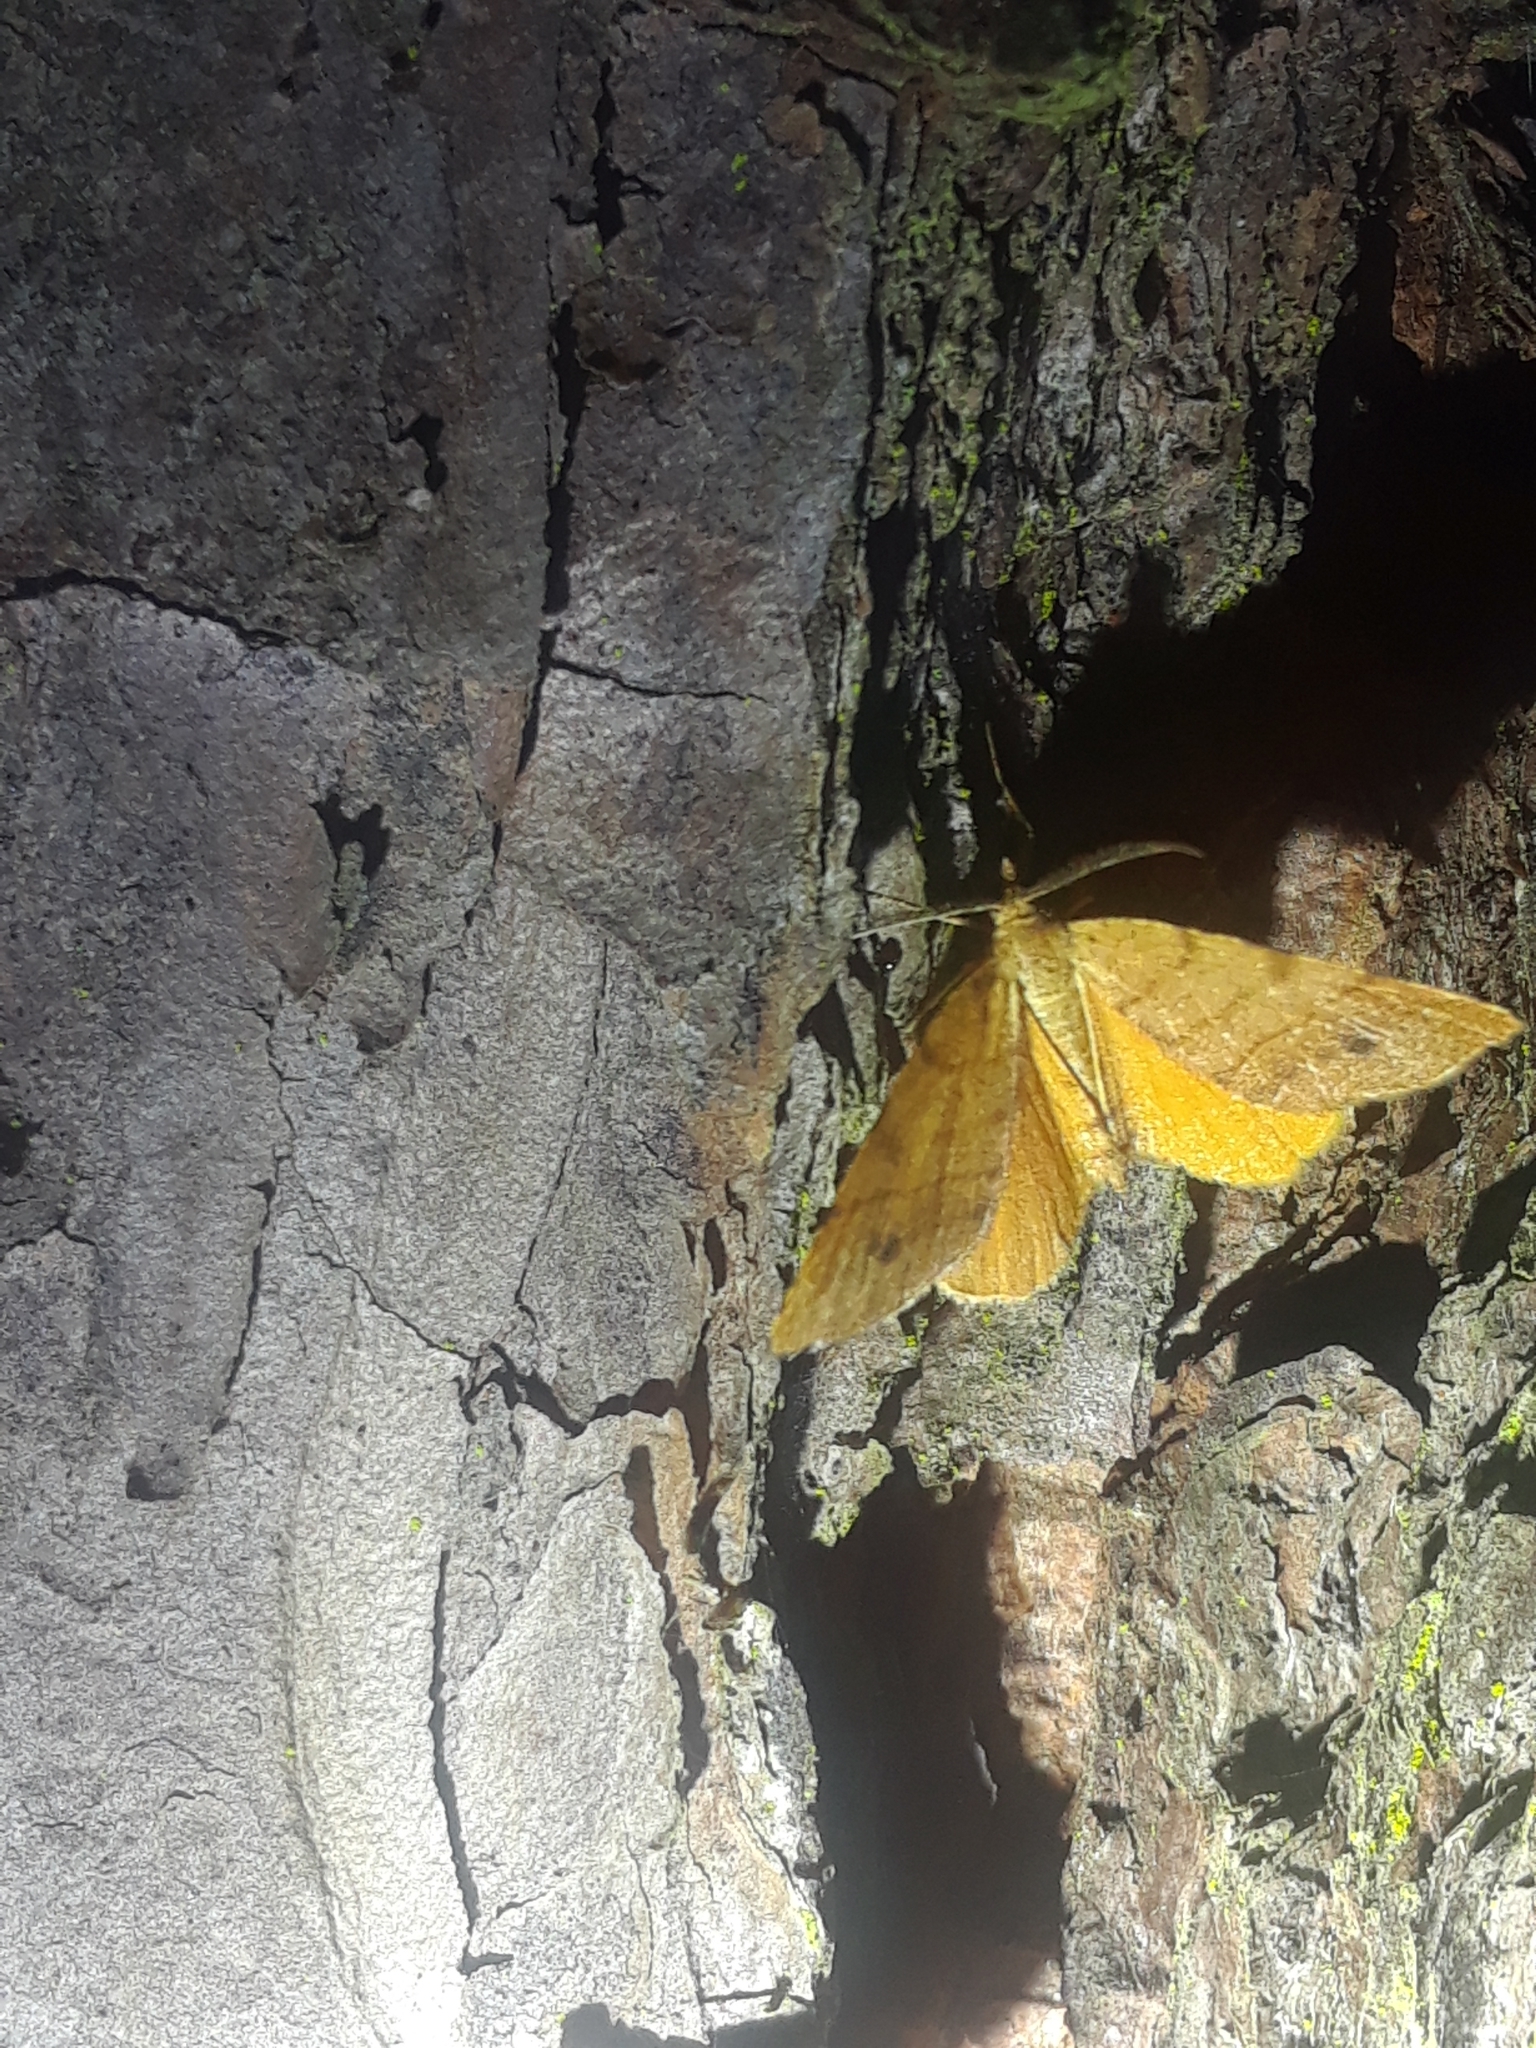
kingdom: Animalia
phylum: Arthropoda
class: Insecta
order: Lepidoptera
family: Geometridae
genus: Mellilla
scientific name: Mellilla xanthometata
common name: Orange wing moth
